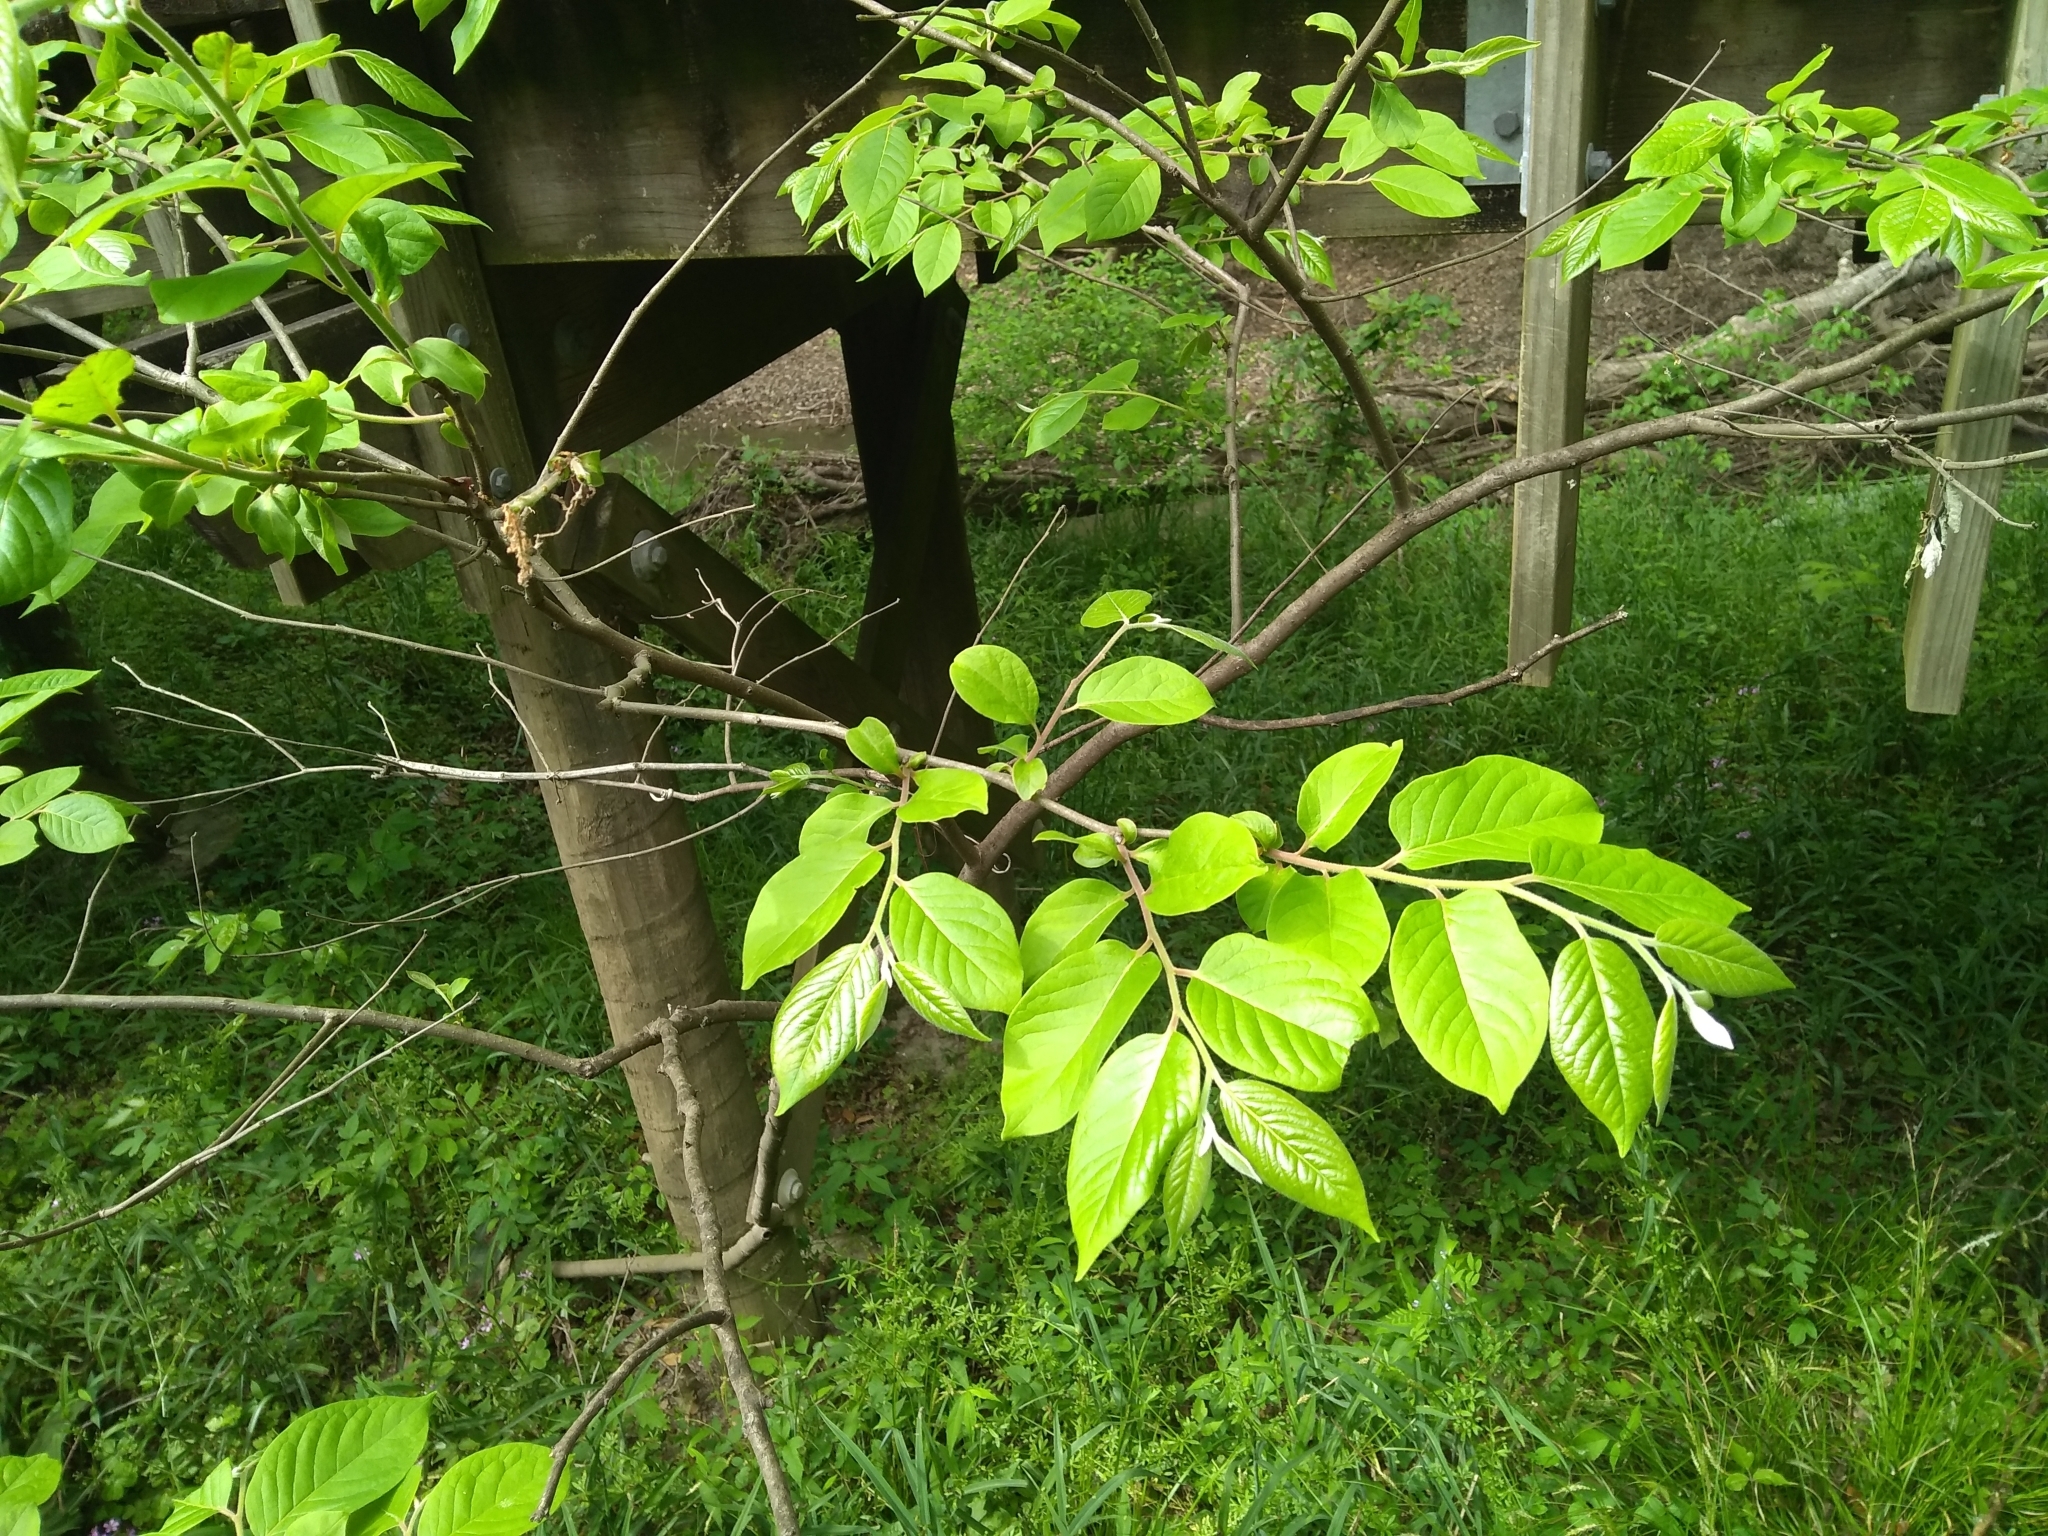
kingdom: Plantae
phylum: Tracheophyta
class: Magnoliopsida
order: Ericales
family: Ebenaceae
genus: Diospyros
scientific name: Diospyros virginiana
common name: Persimmon
